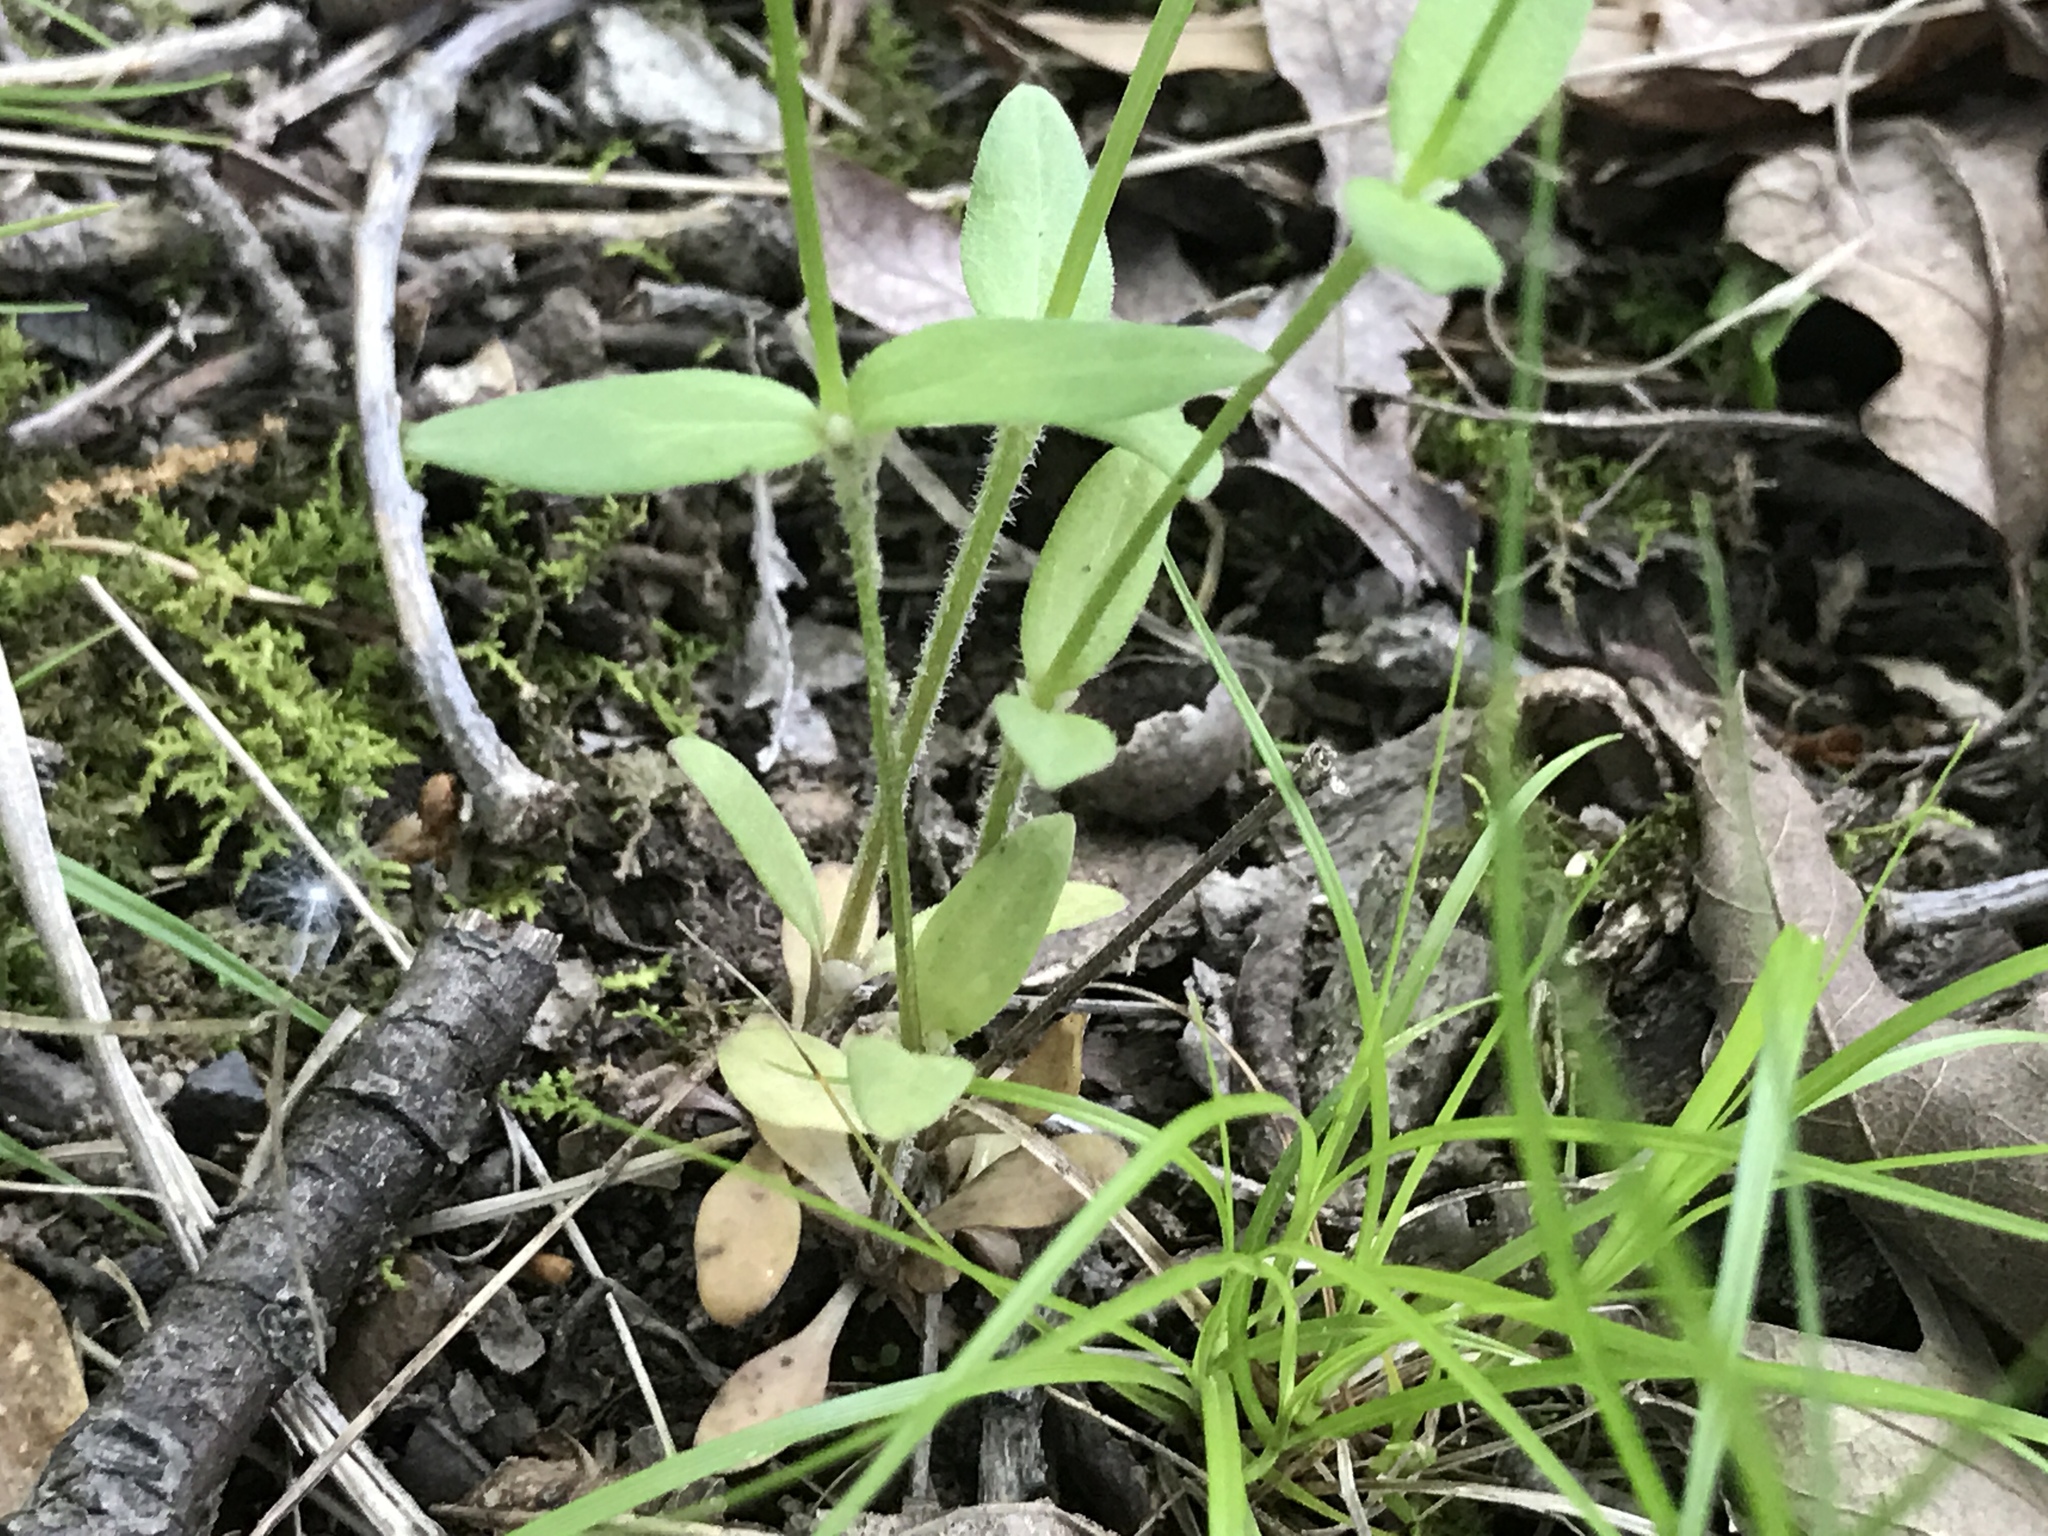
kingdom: Plantae
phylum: Tracheophyta
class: Magnoliopsida
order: Gentianales
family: Rubiaceae
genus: Houstonia
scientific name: Houstonia purpurea
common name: Summer bluet
